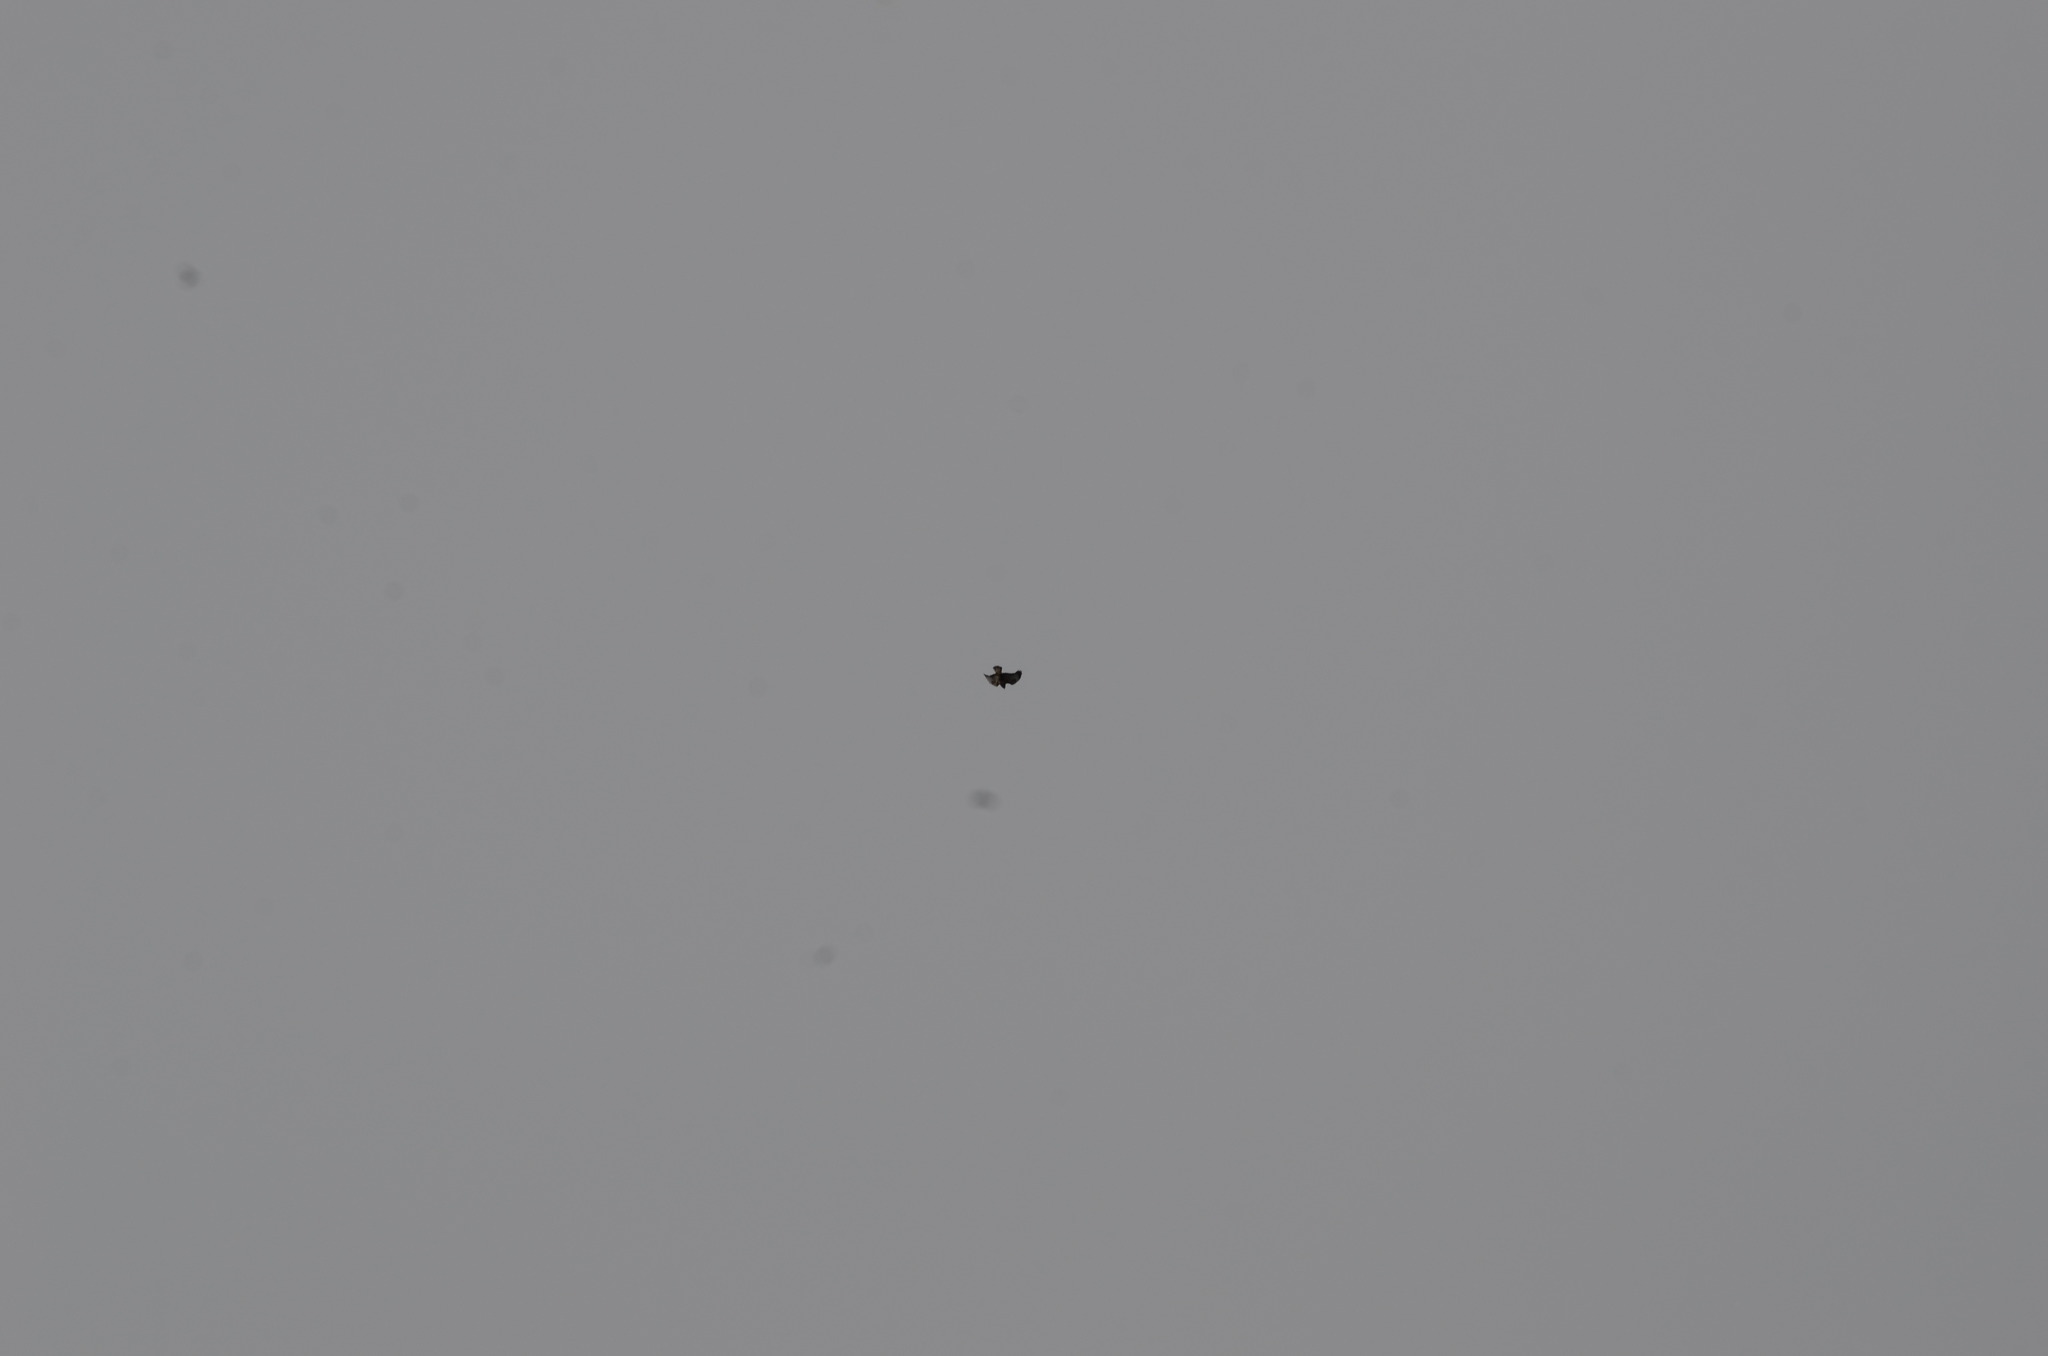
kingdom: Animalia
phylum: Chordata
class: Aves
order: Accipitriformes
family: Accipitridae
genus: Buteo
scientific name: Buteo buteo
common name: Common buzzard
